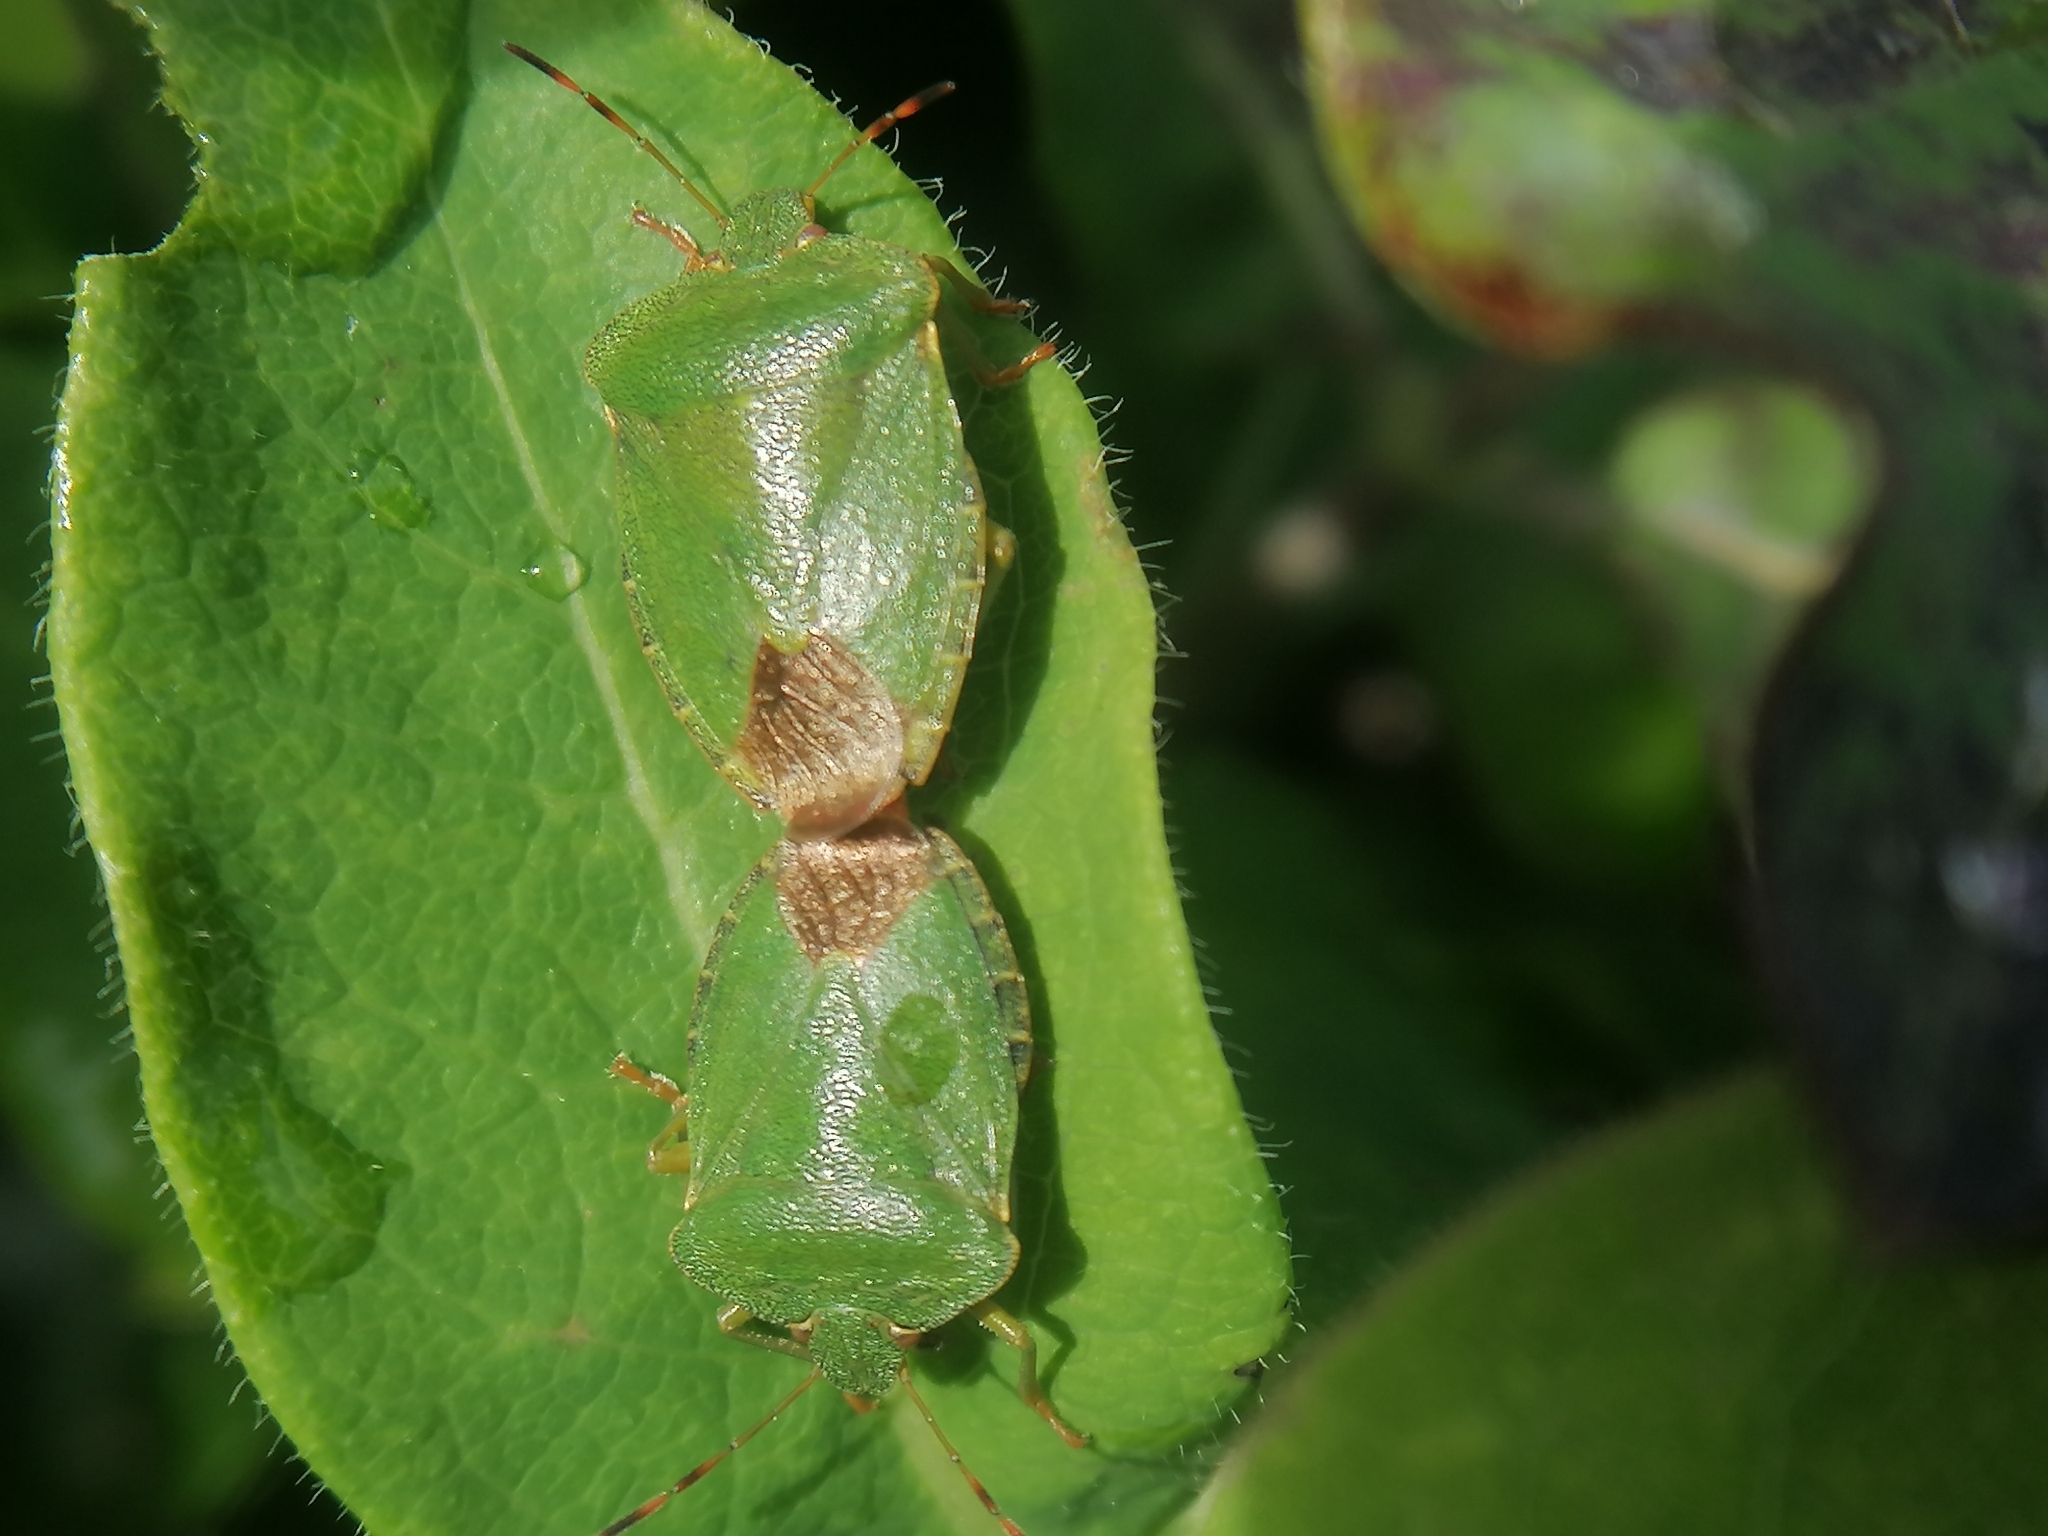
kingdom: Animalia
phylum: Arthropoda
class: Insecta
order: Hemiptera
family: Pentatomidae
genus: Palomena
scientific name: Palomena prasina
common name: Green shieldbug
